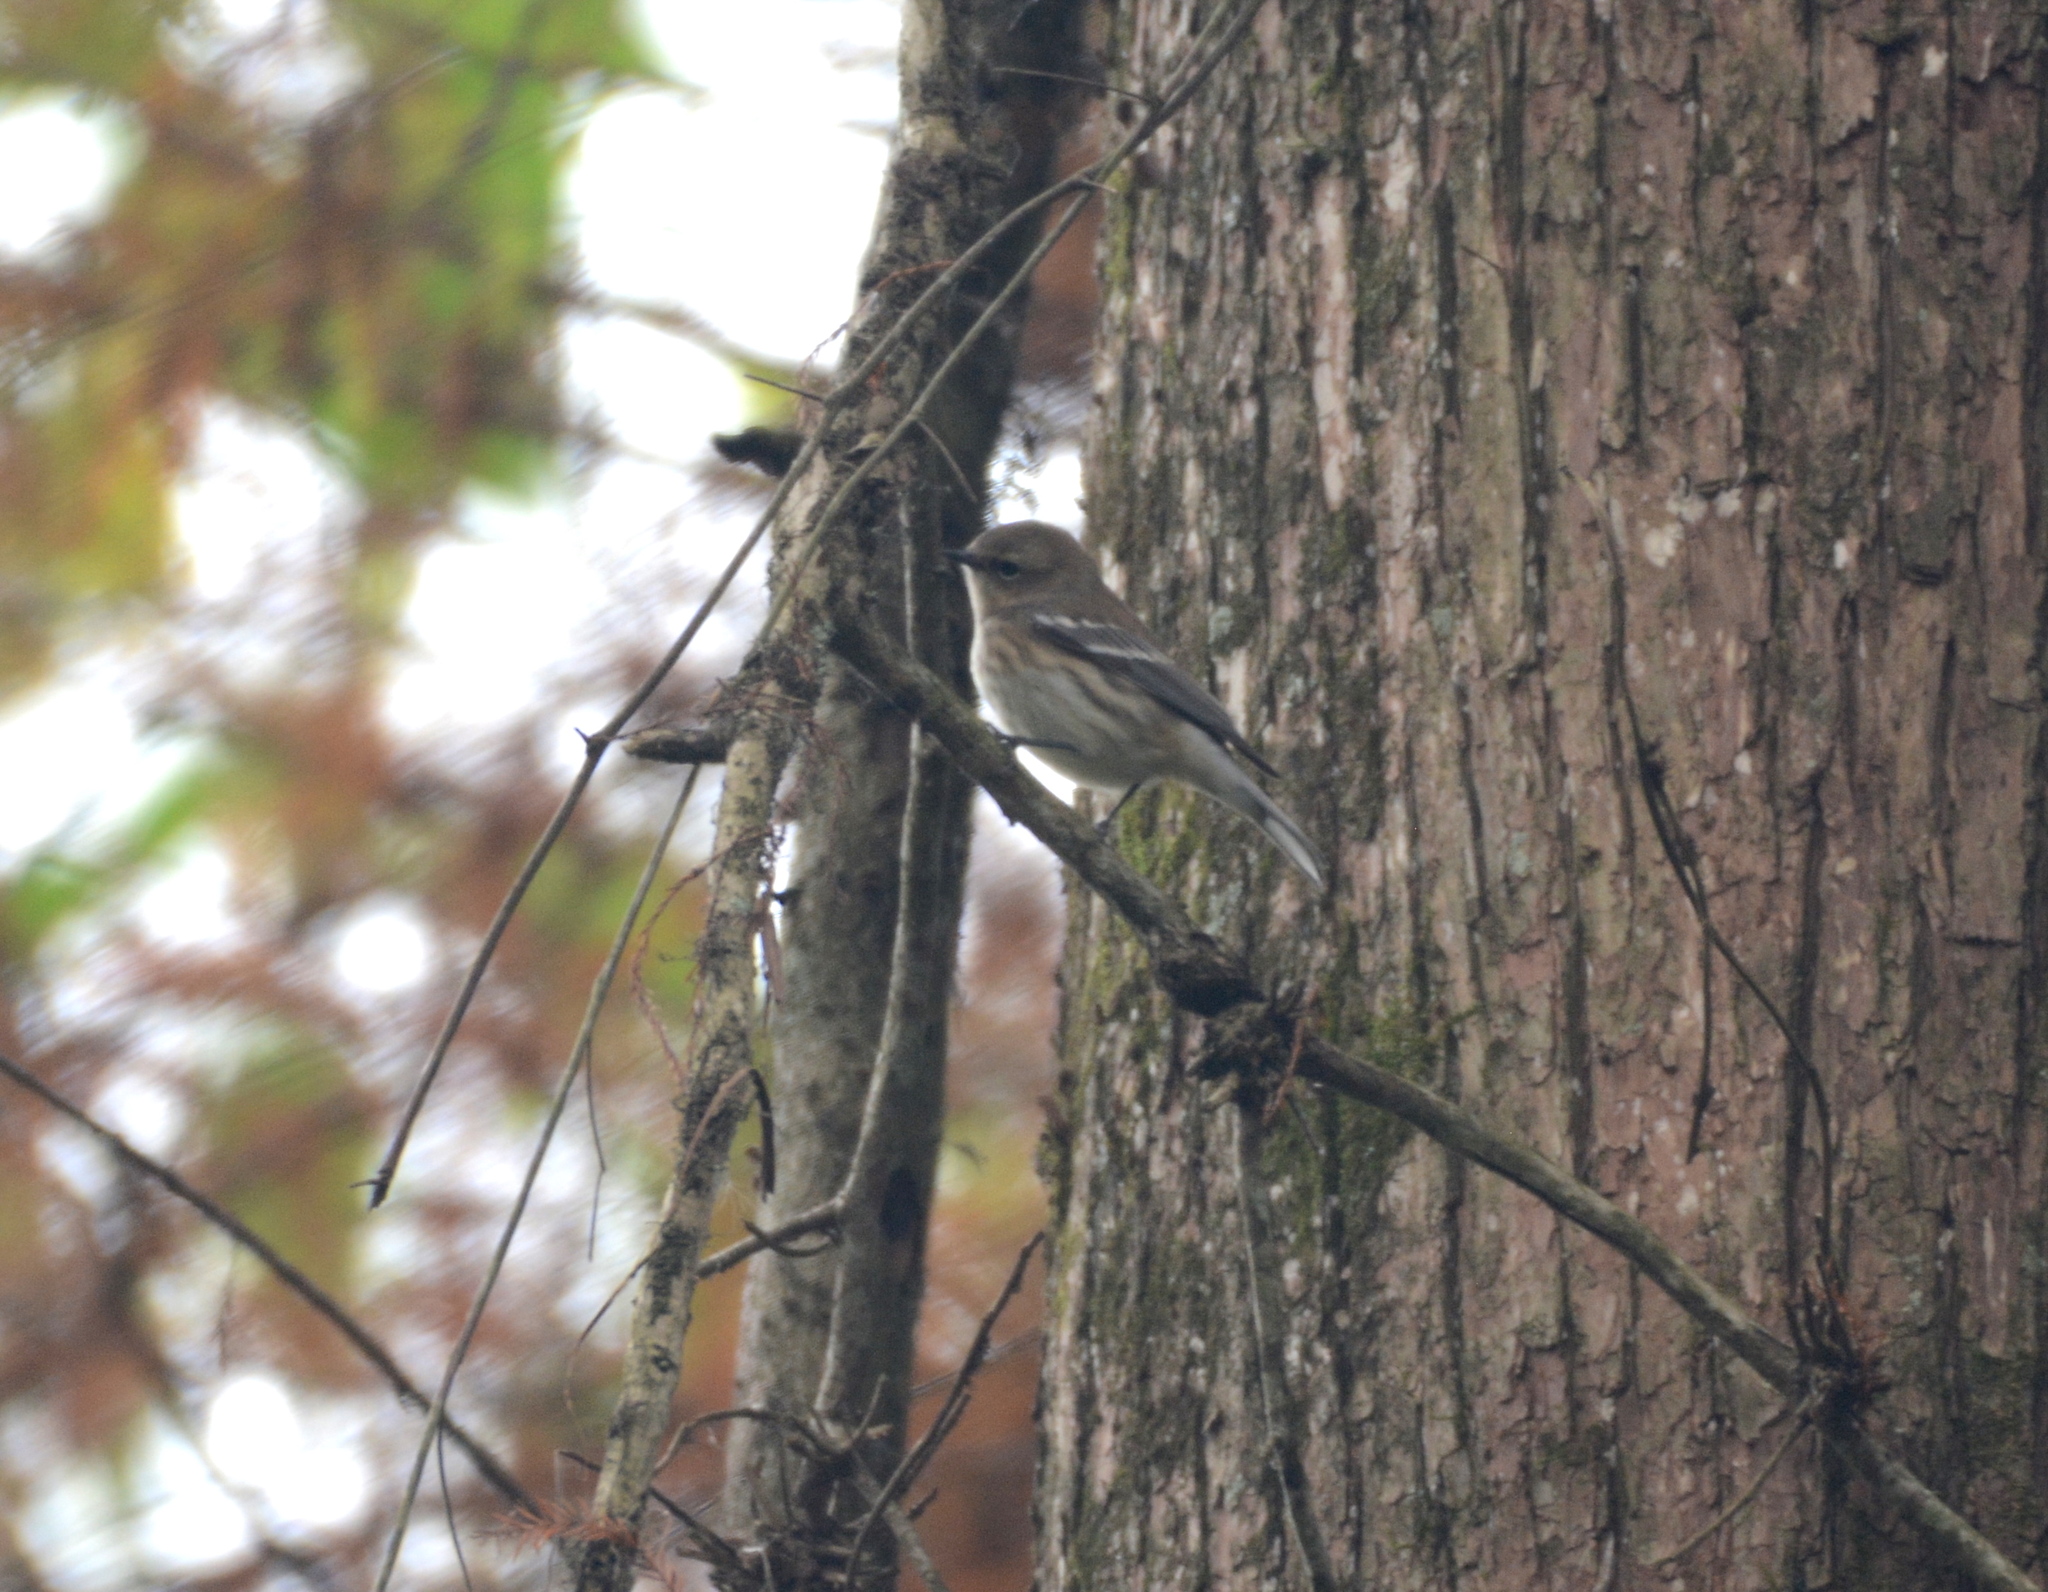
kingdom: Animalia
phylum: Chordata
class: Aves
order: Passeriformes
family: Parulidae
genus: Setophaga
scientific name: Setophaga coronata
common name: Myrtle warbler
